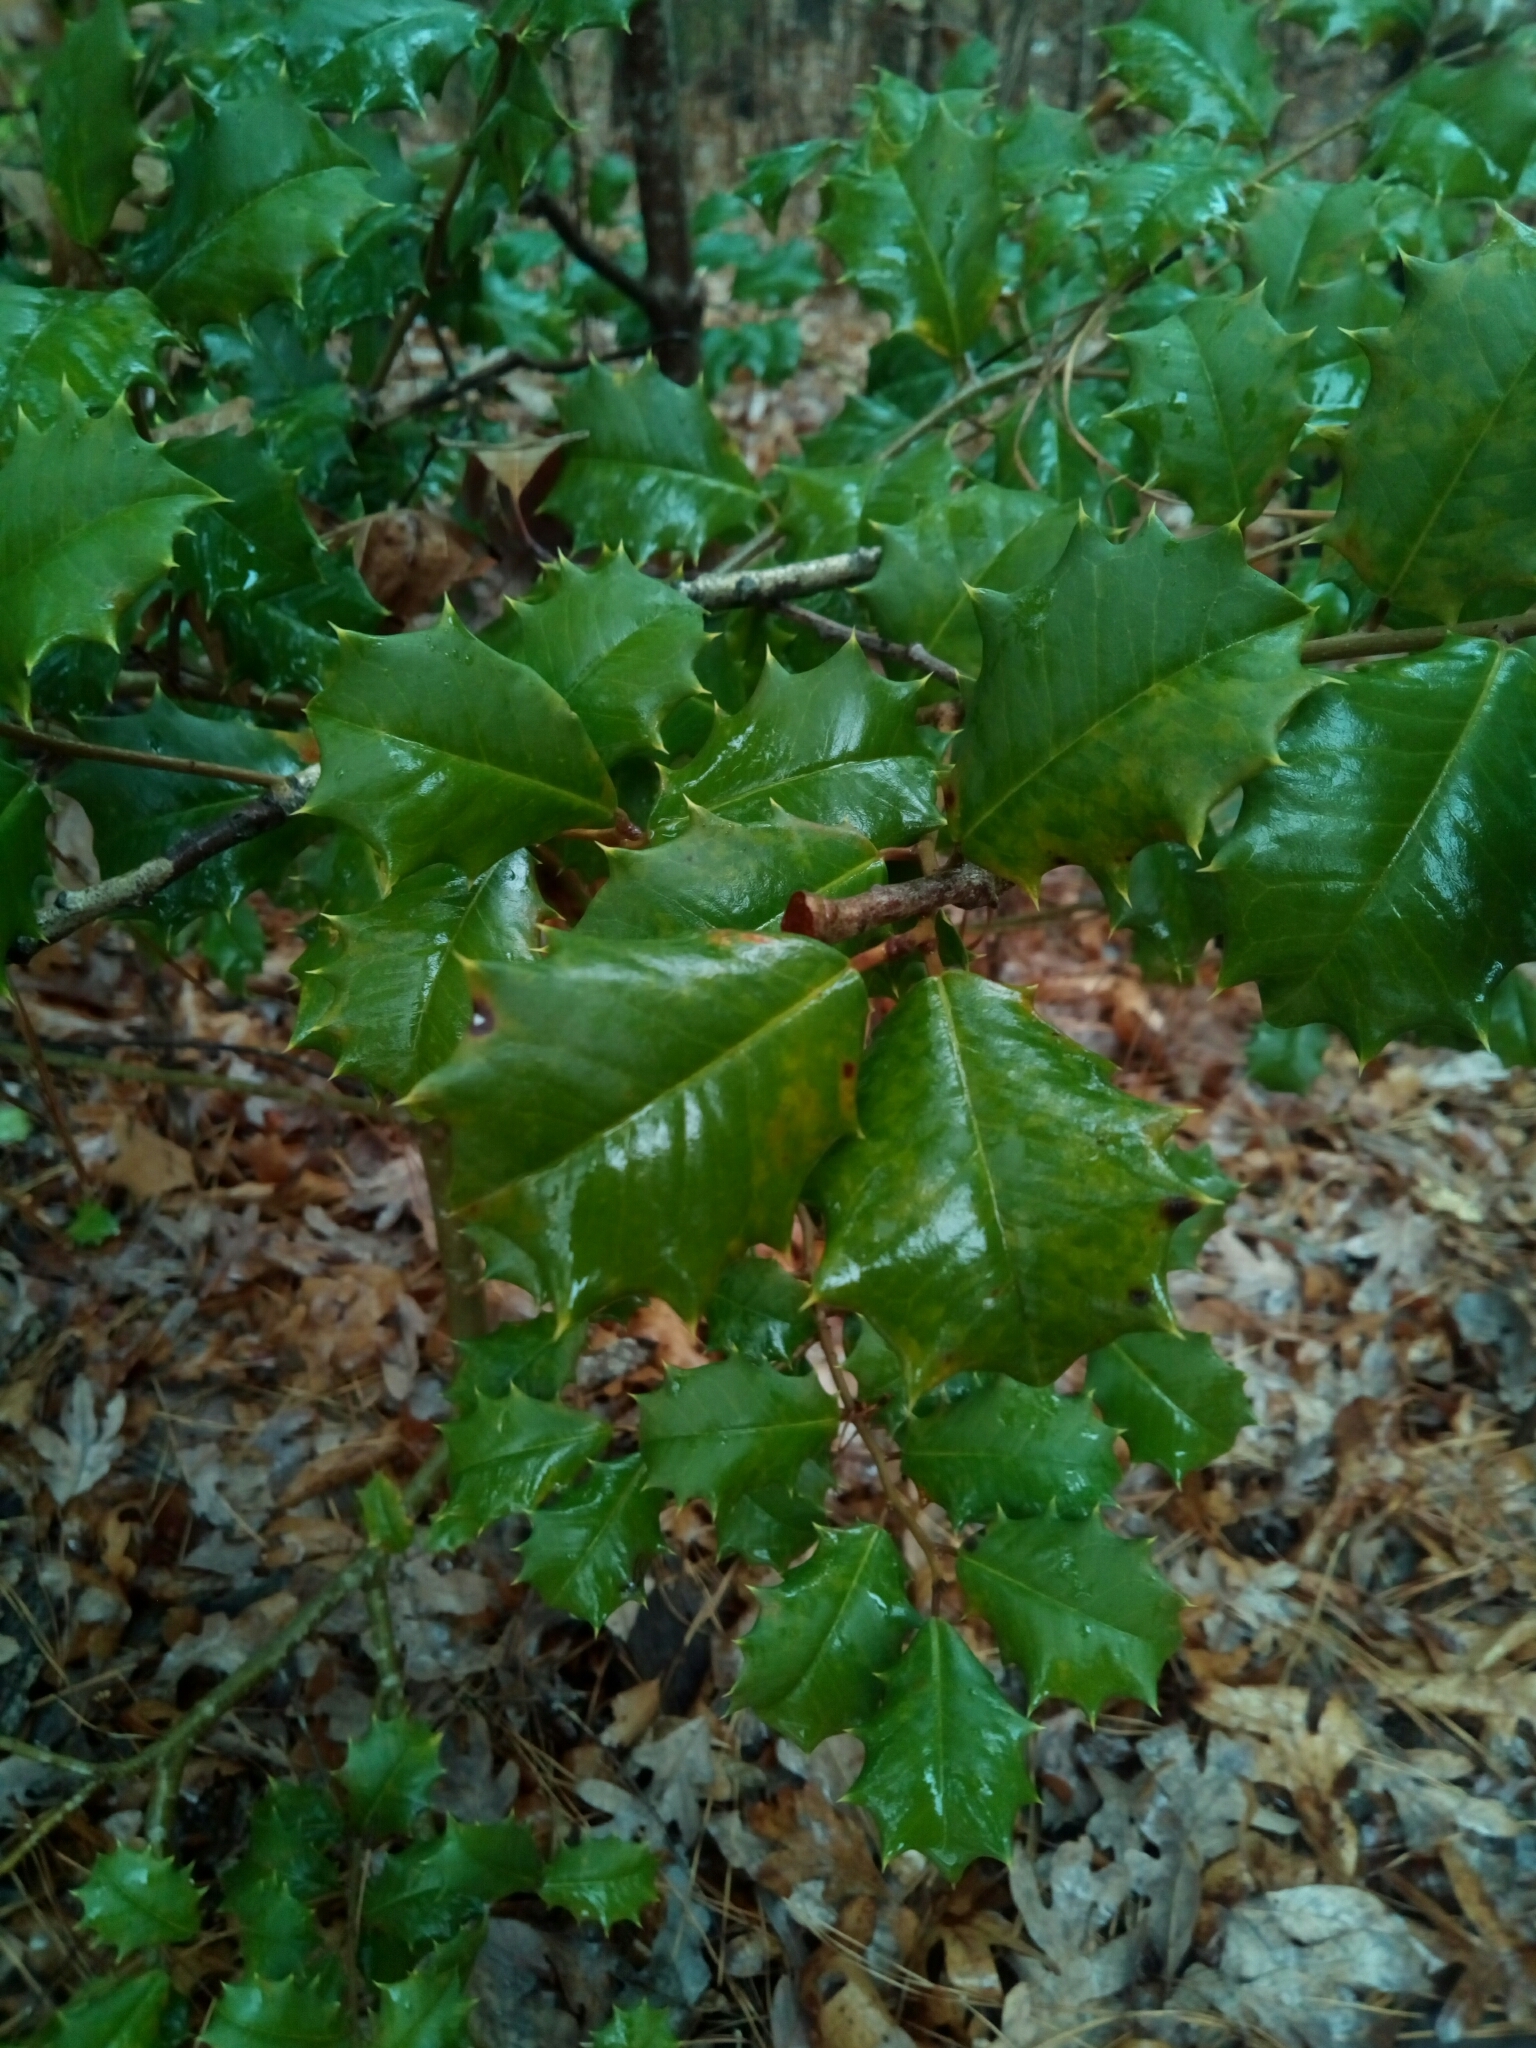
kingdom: Plantae
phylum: Tracheophyta
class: Magnoliopsida
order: Aquifoliales
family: Aquifoliaceae
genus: Ilex
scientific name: Ilex opaca
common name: American holly
